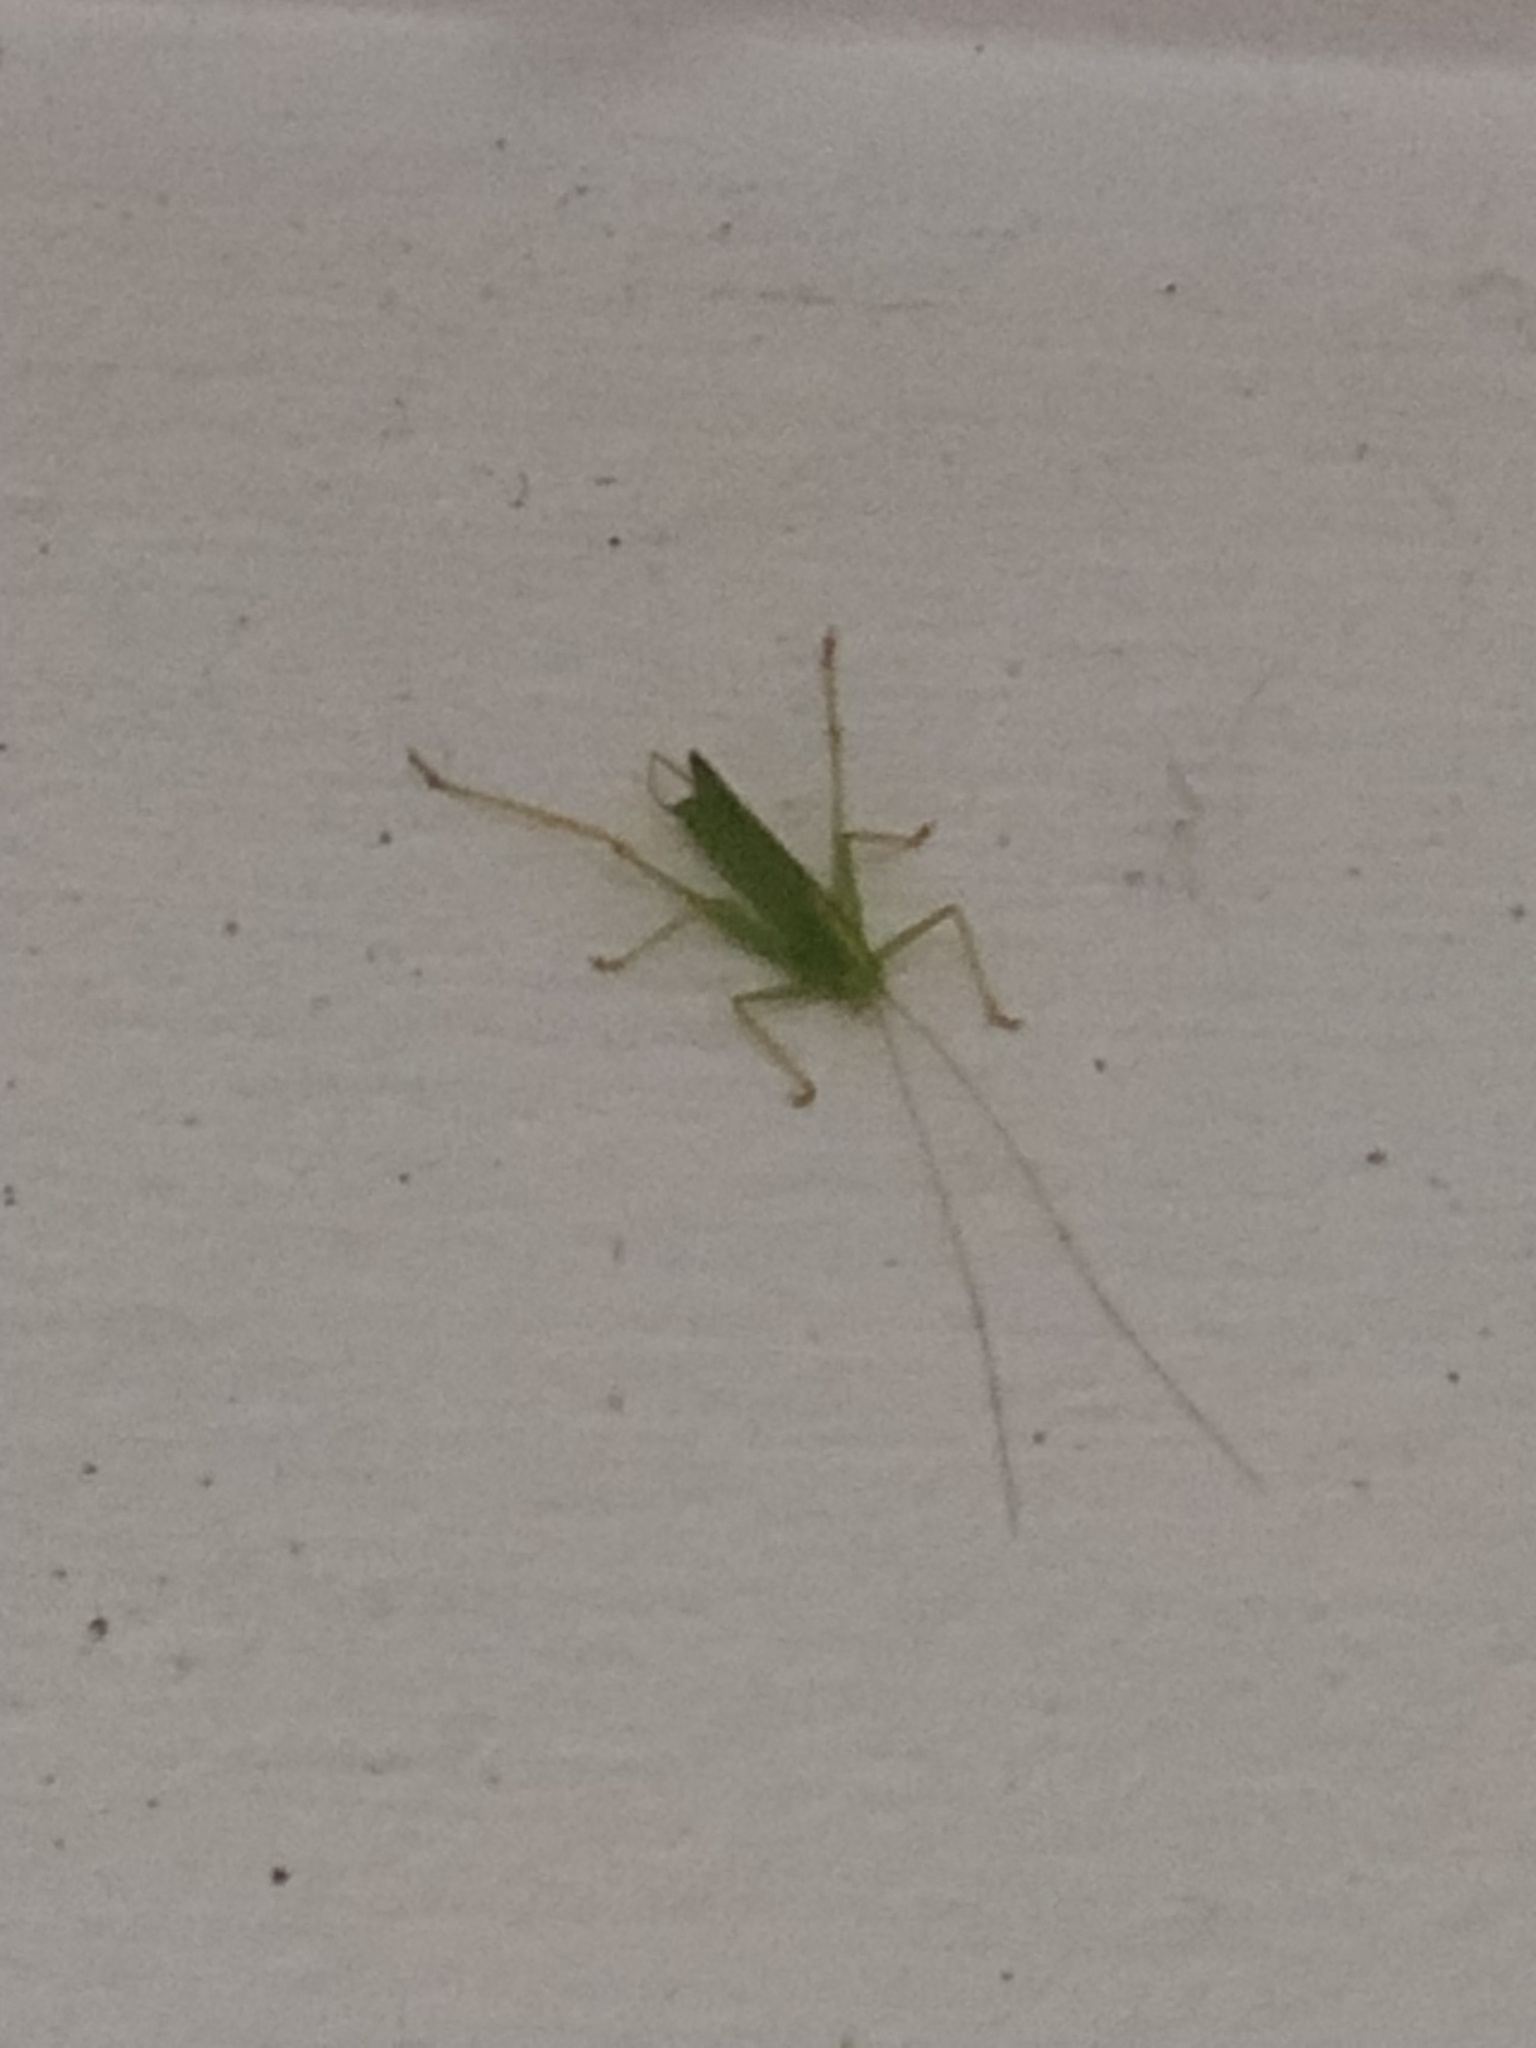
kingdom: Animalia
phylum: Arthropoda
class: Insecta
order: Orthoptera
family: Tettigoniidae
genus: Meconema
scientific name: Meconema thalassinum
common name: Oak bush-cricket
